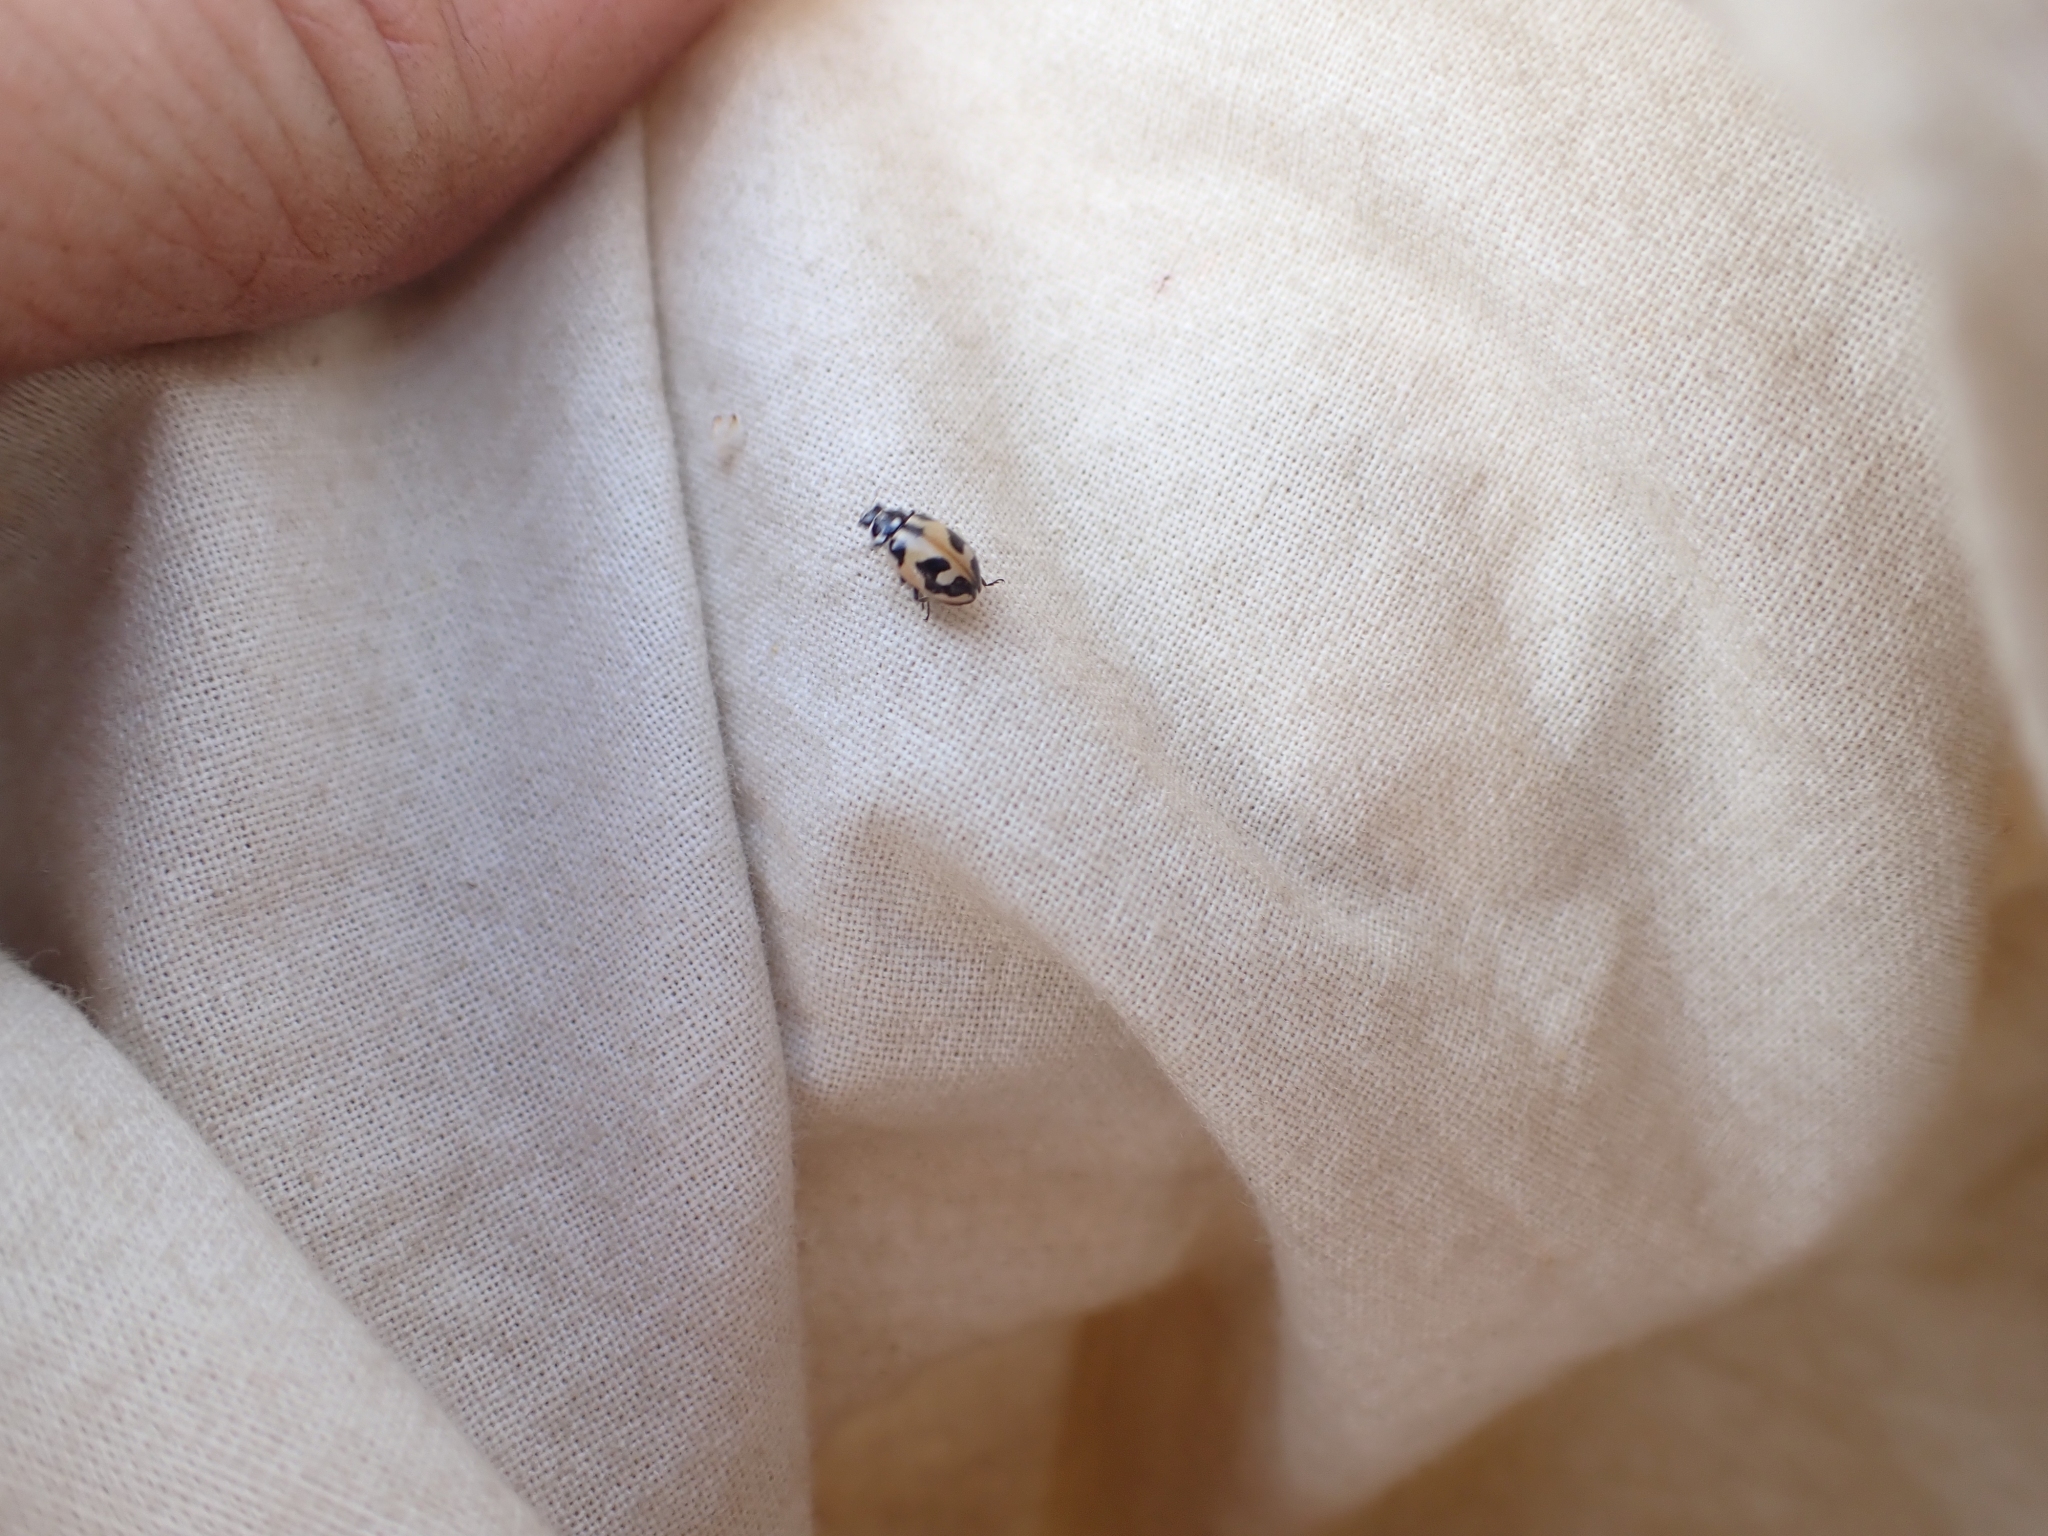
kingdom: Animalia
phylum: Arthropoda
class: Insecta
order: Coleoptera
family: Coccinellidae
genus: Hippodamia
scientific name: Hippodamia parenthesis
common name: Parenthesis lady beetle
